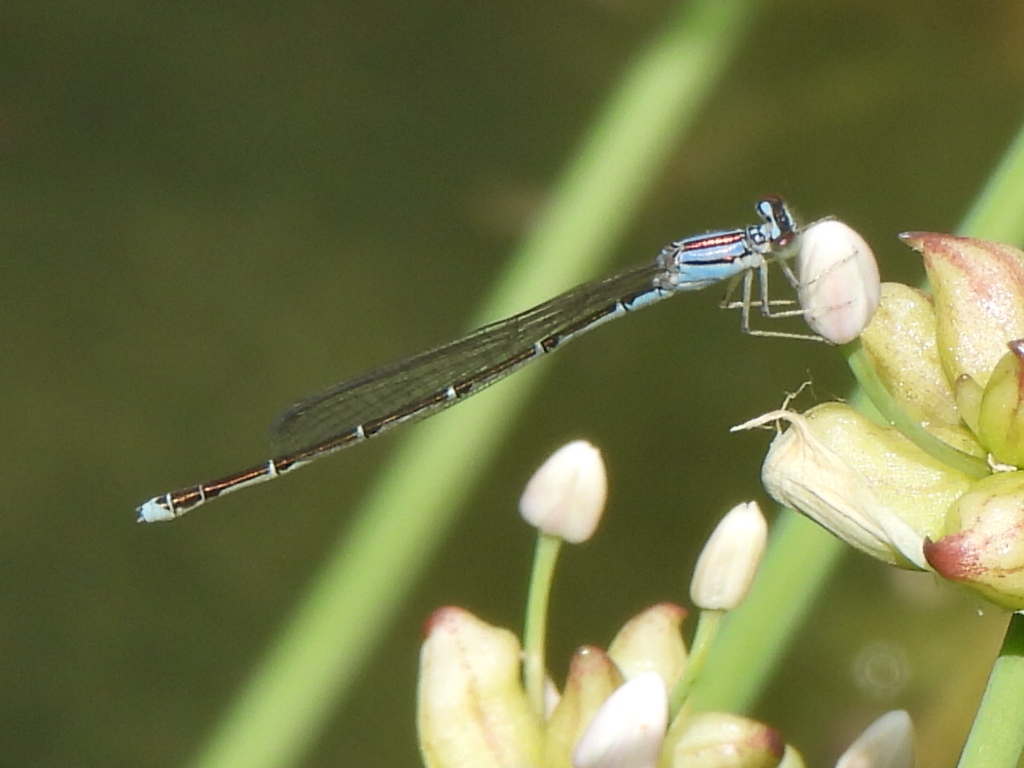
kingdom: Animalia
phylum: Arthropoda
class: Insecta
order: Odonata
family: Coenagrionidae
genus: Enallagma
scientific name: Enallagma signatum
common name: Orange bluet
